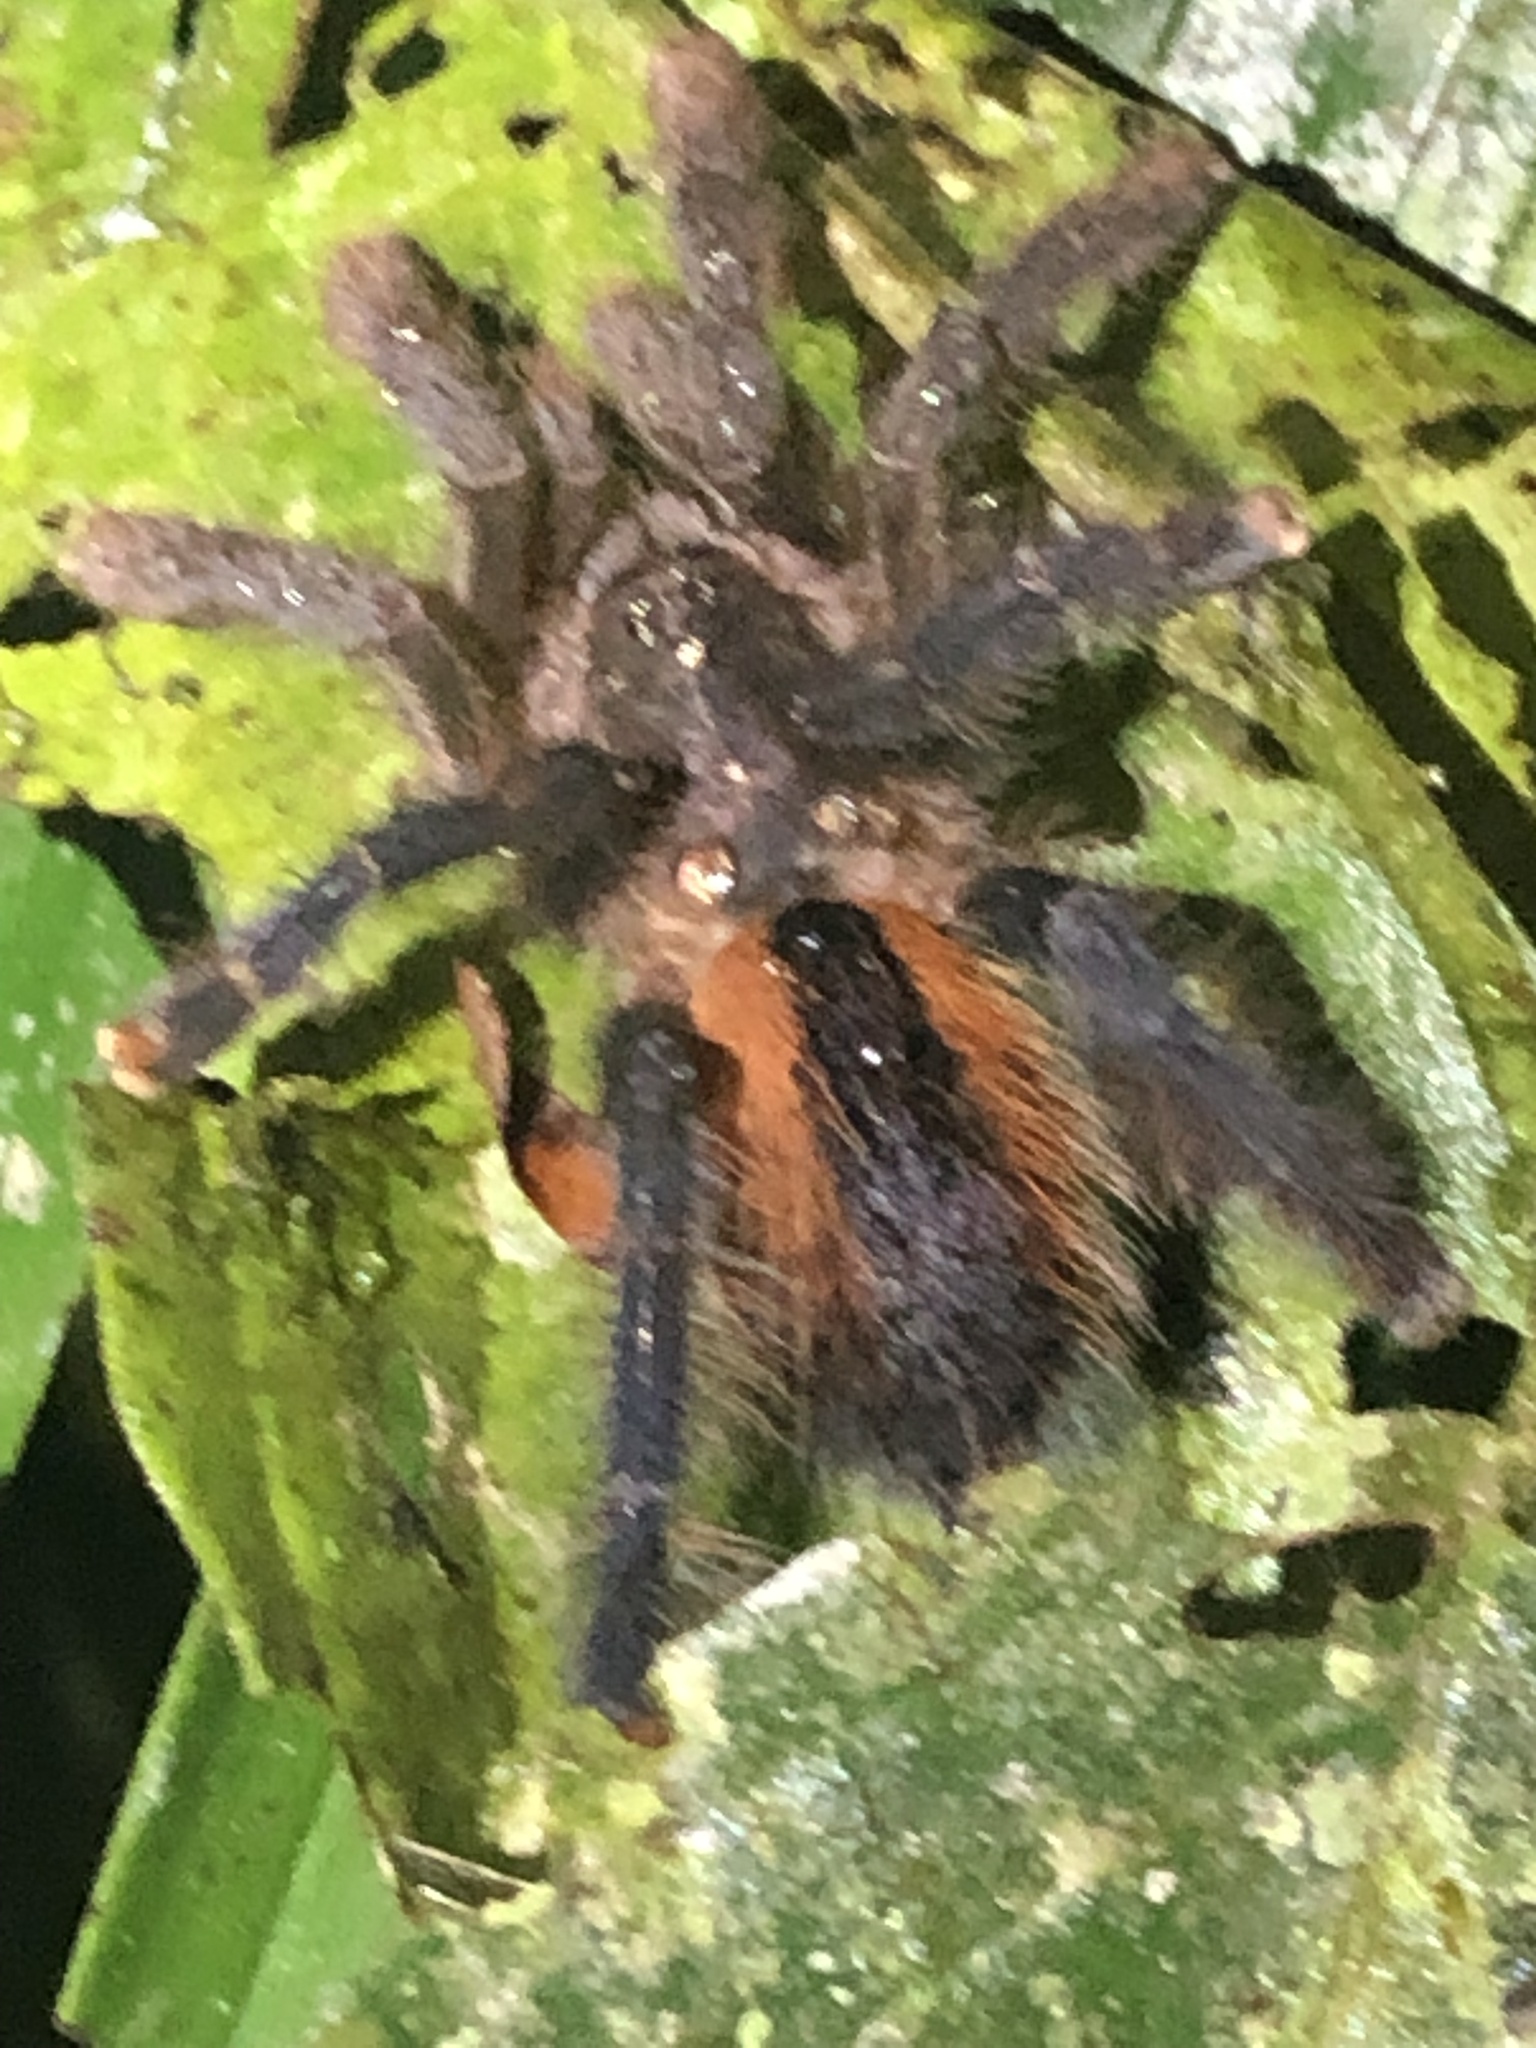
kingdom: Animalia
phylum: Arthropoda
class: Arachnida
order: Araneae
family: Theraphosidae
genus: Avicularia
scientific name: Avicularia hirschii
